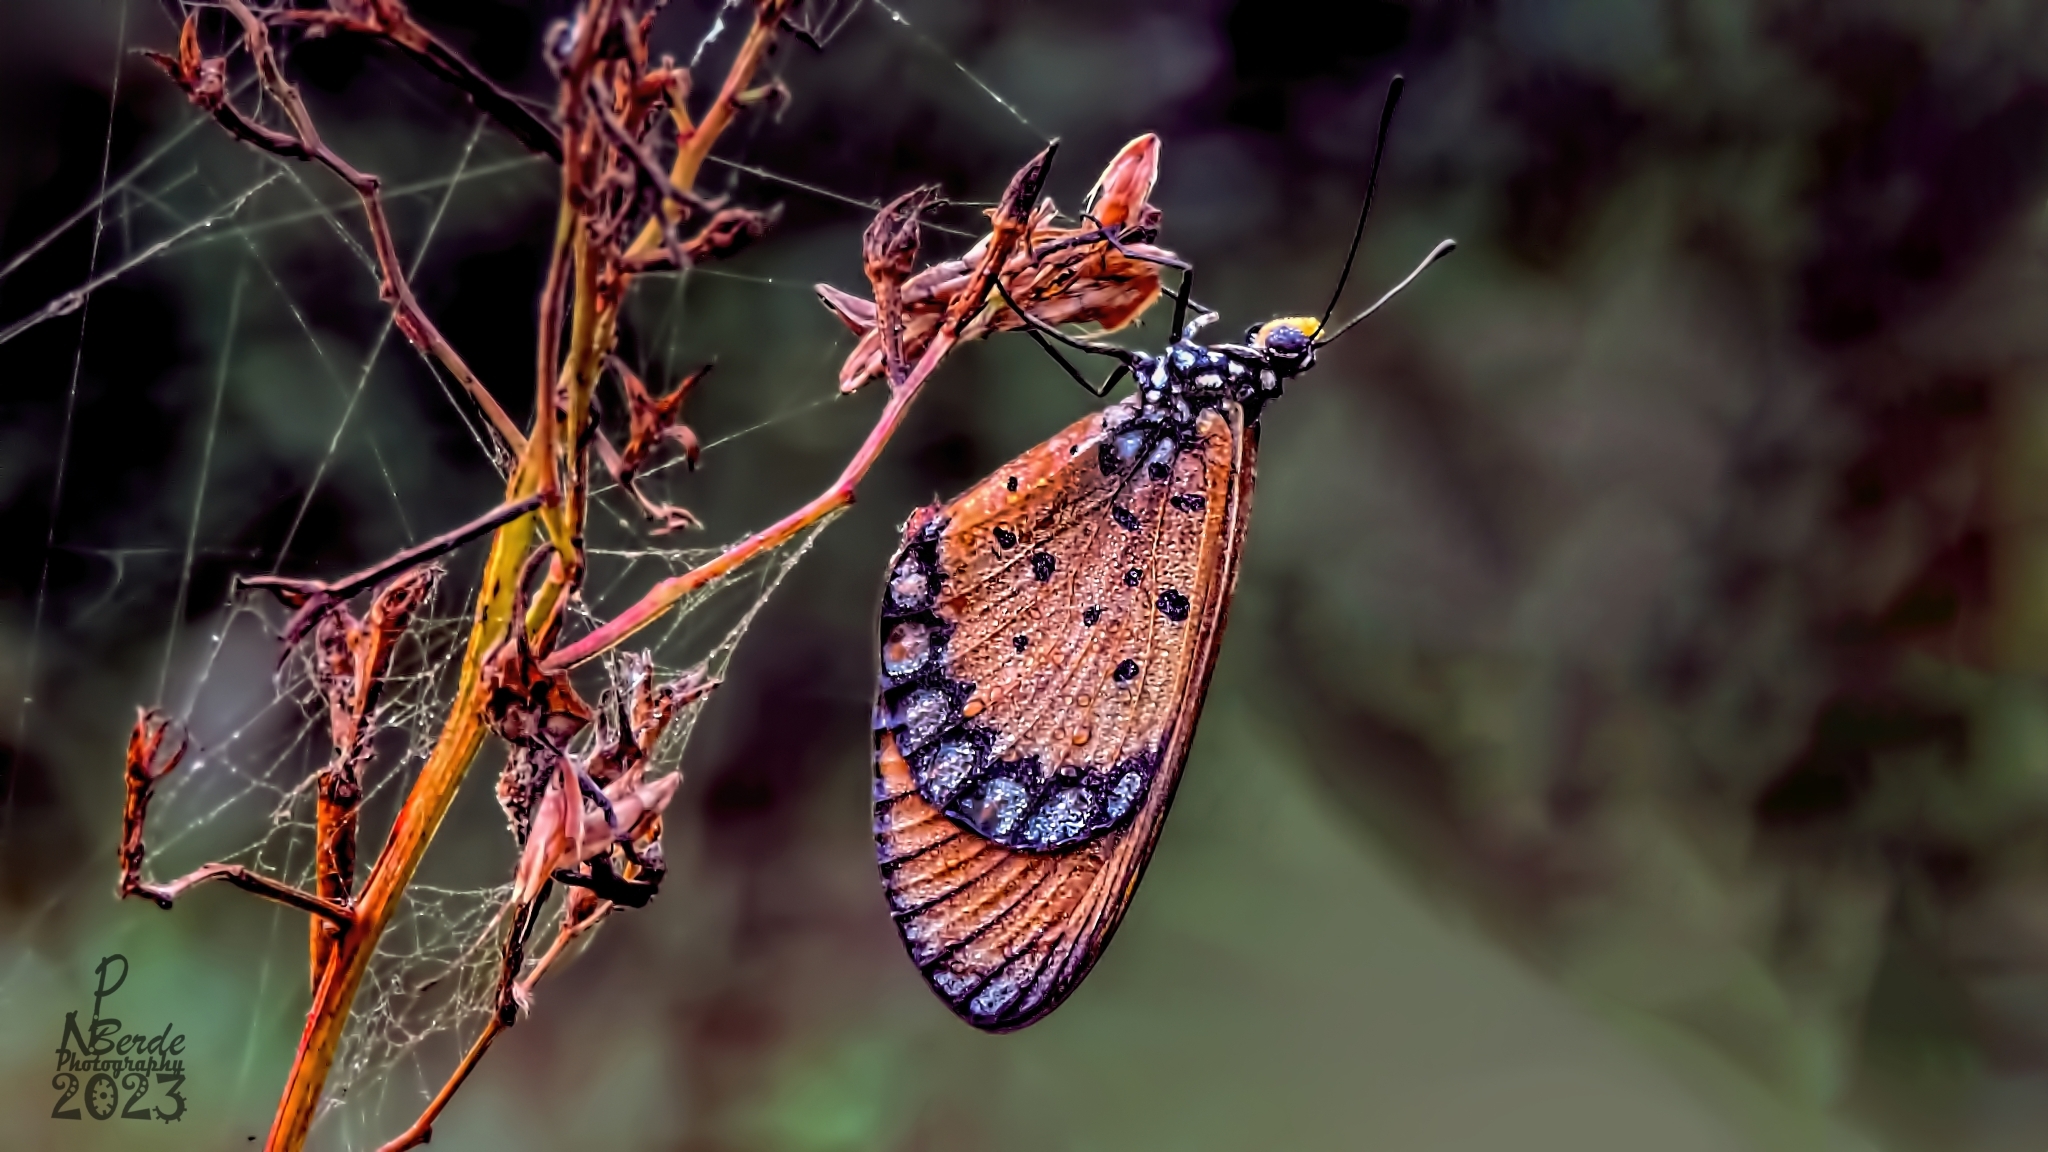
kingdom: Animalia
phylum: Arthropoda
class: Insecta
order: Lepidoptera
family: Nymphalidae
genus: Acraea
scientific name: Acraea terpsicore
